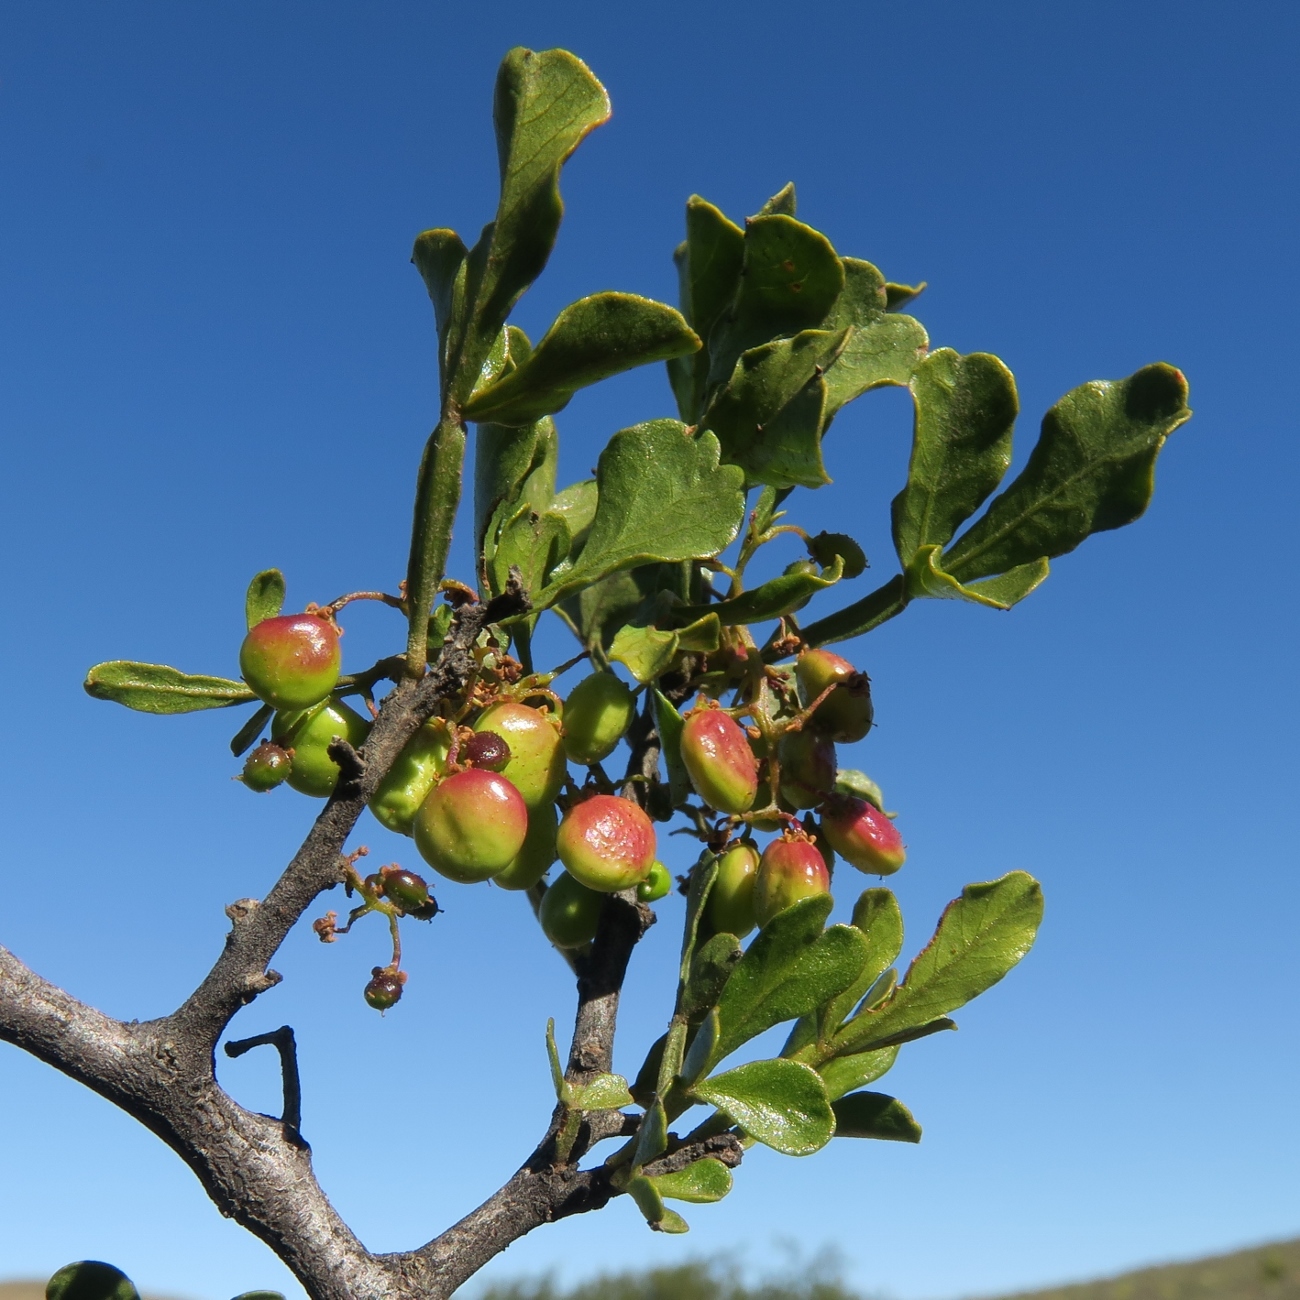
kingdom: Plantae
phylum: Tracheophyta
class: Magnoliopsida
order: Sapindales
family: Anacardiaceae
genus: Searsia
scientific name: Searsia undulata
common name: Namaqua kunibush
